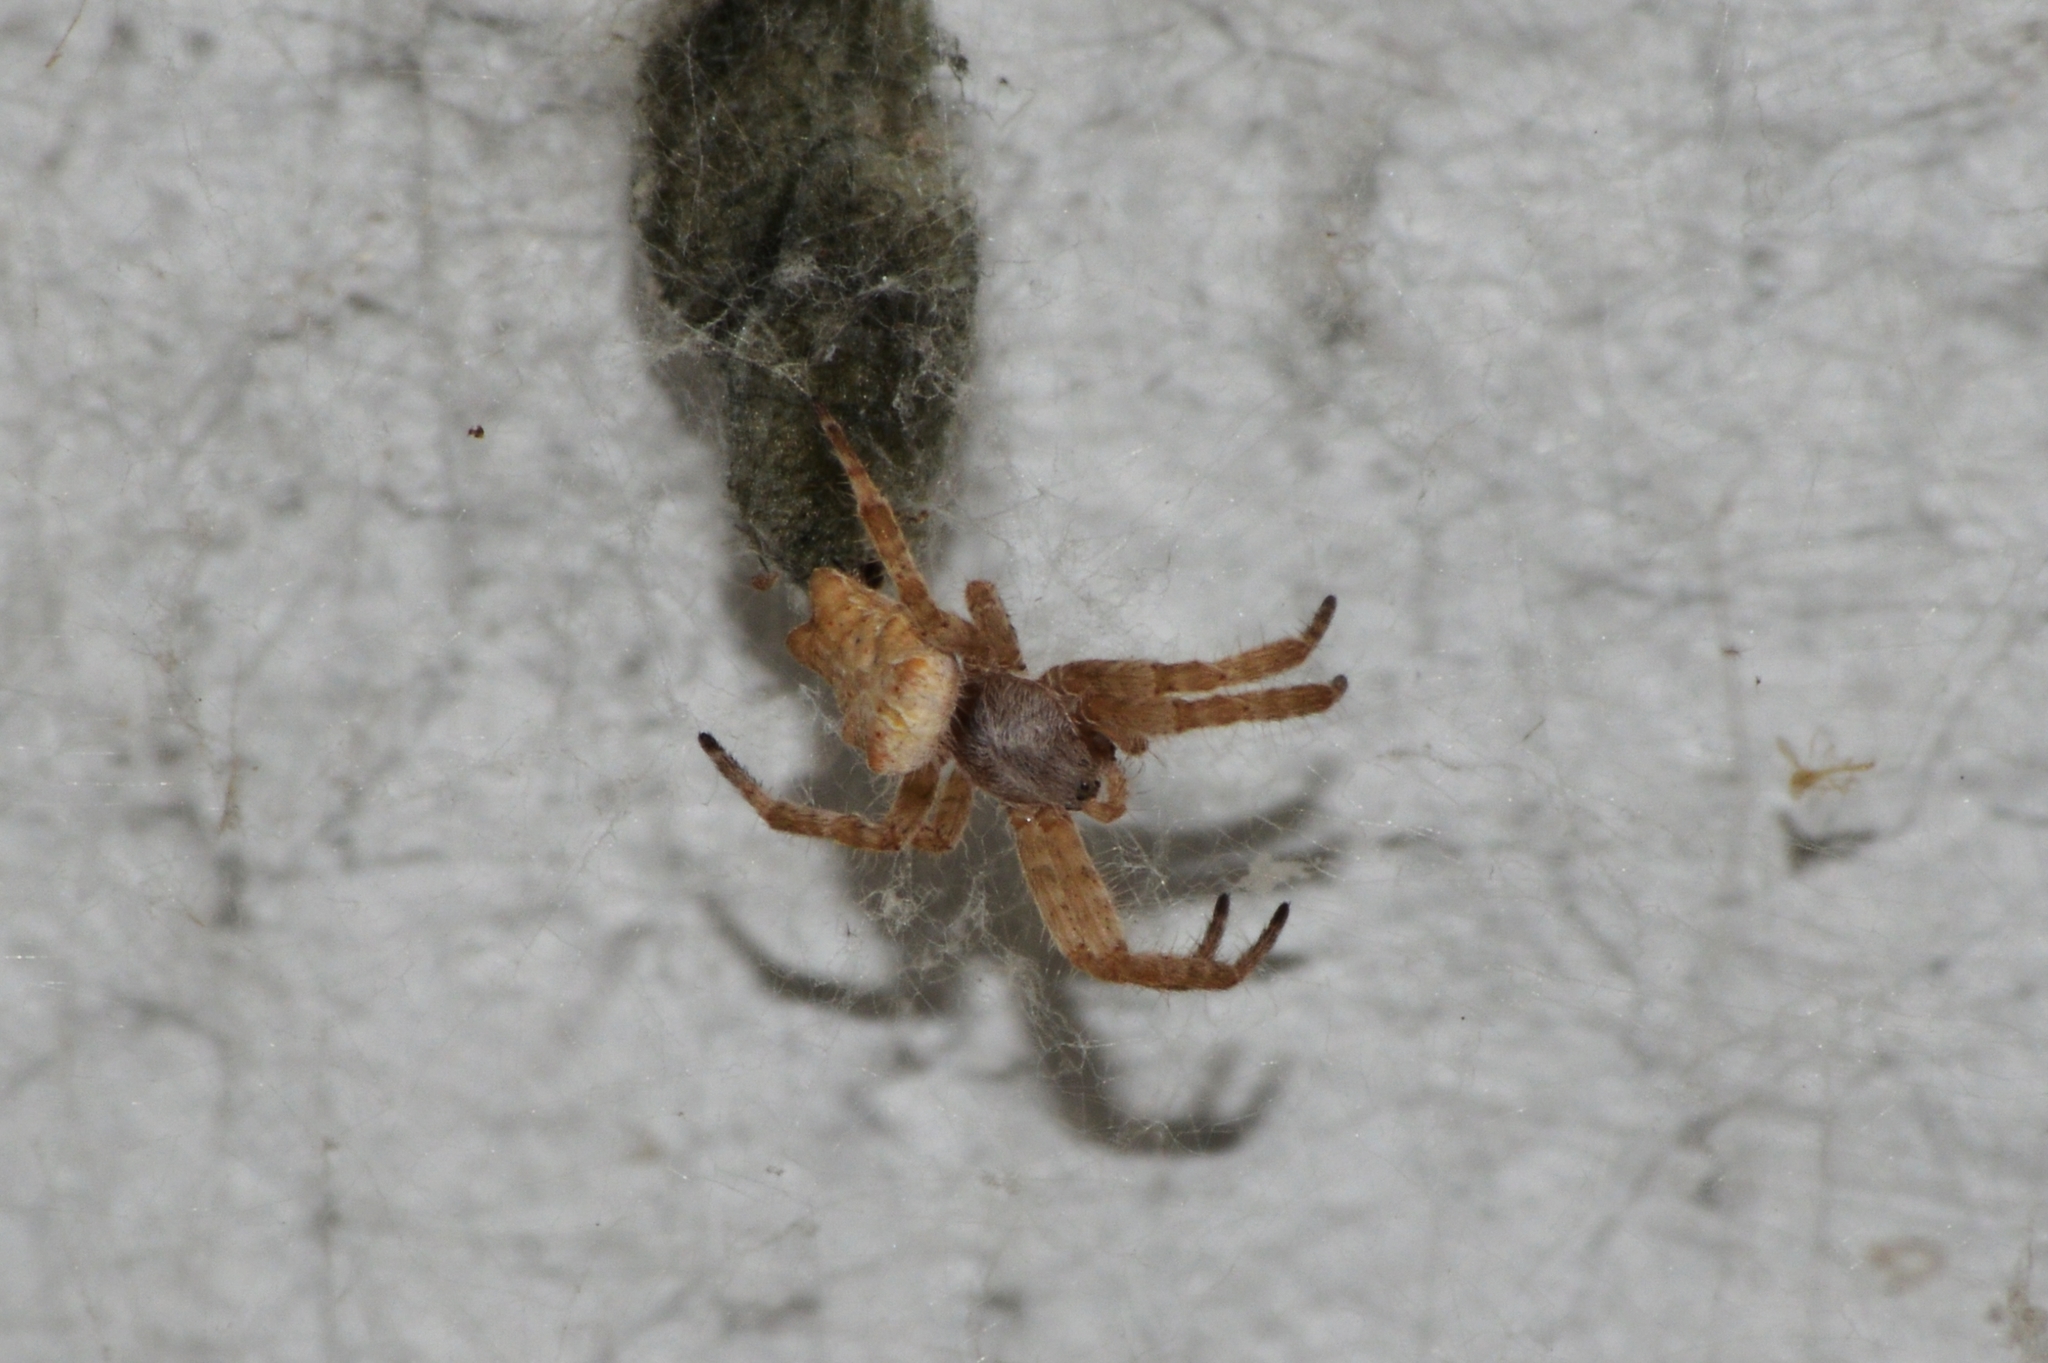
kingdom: Animalia
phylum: Arthropoda
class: Arachnida
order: Araneae
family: Araneidae
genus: Cyrtophora
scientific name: Cyrtophora citricola
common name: Orb weavers
